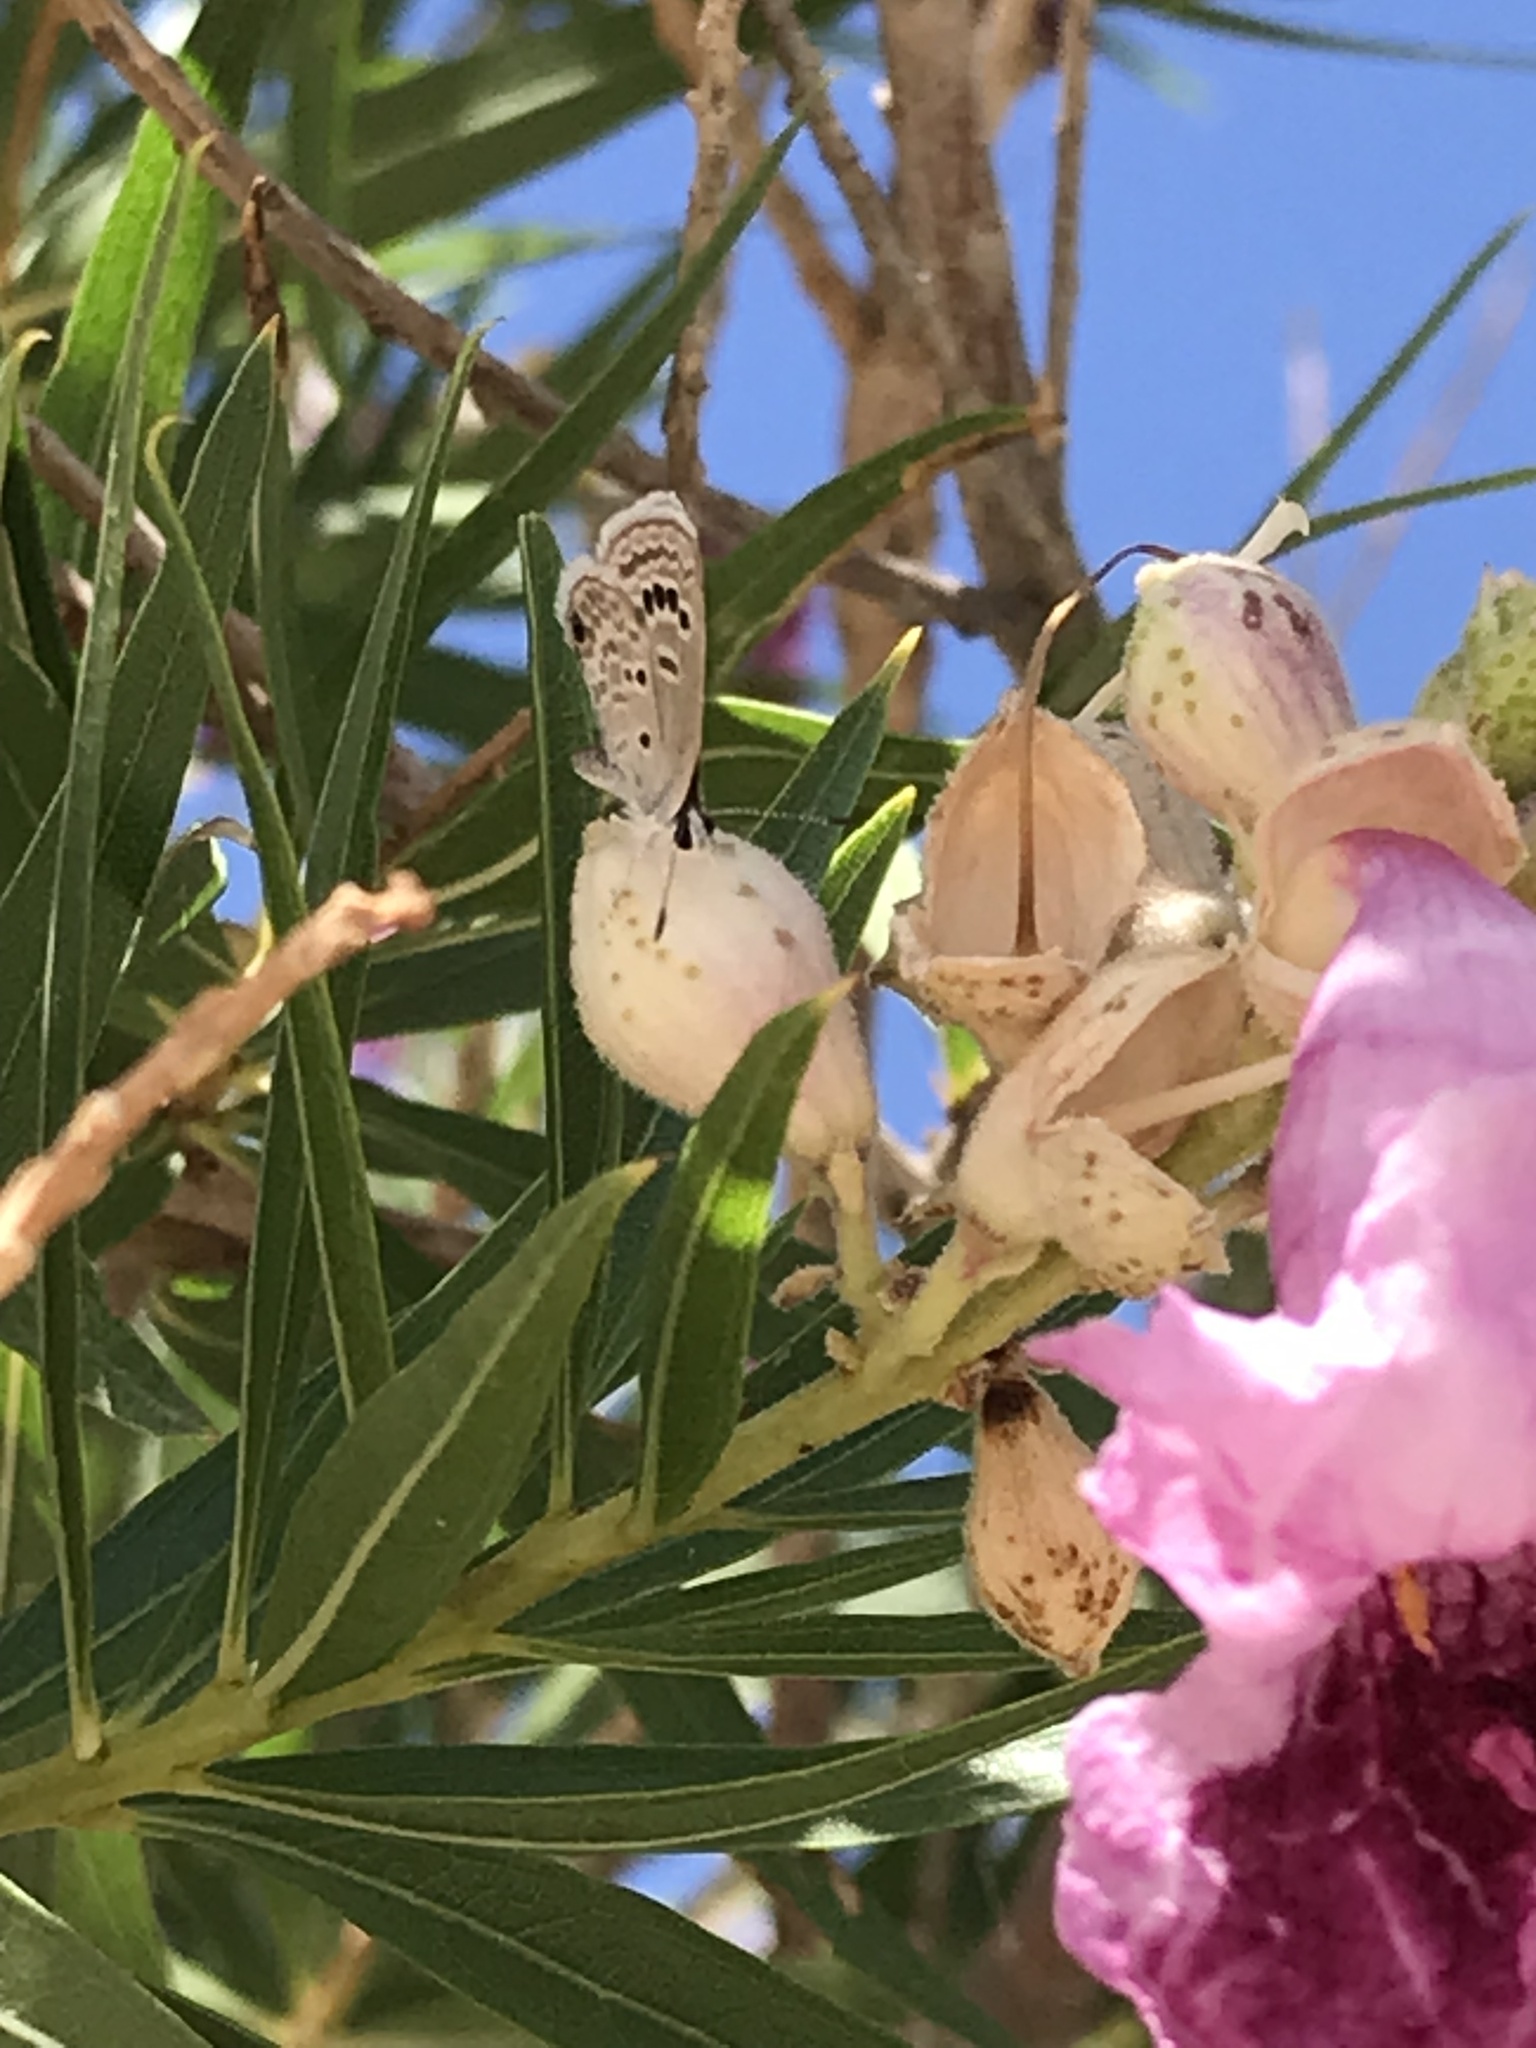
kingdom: Animalia
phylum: Arthropoda
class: Insecta
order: Lepidoptera
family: Lycaenidae
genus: Echinargus
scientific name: Echinargus isola
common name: Reakirt's blue
